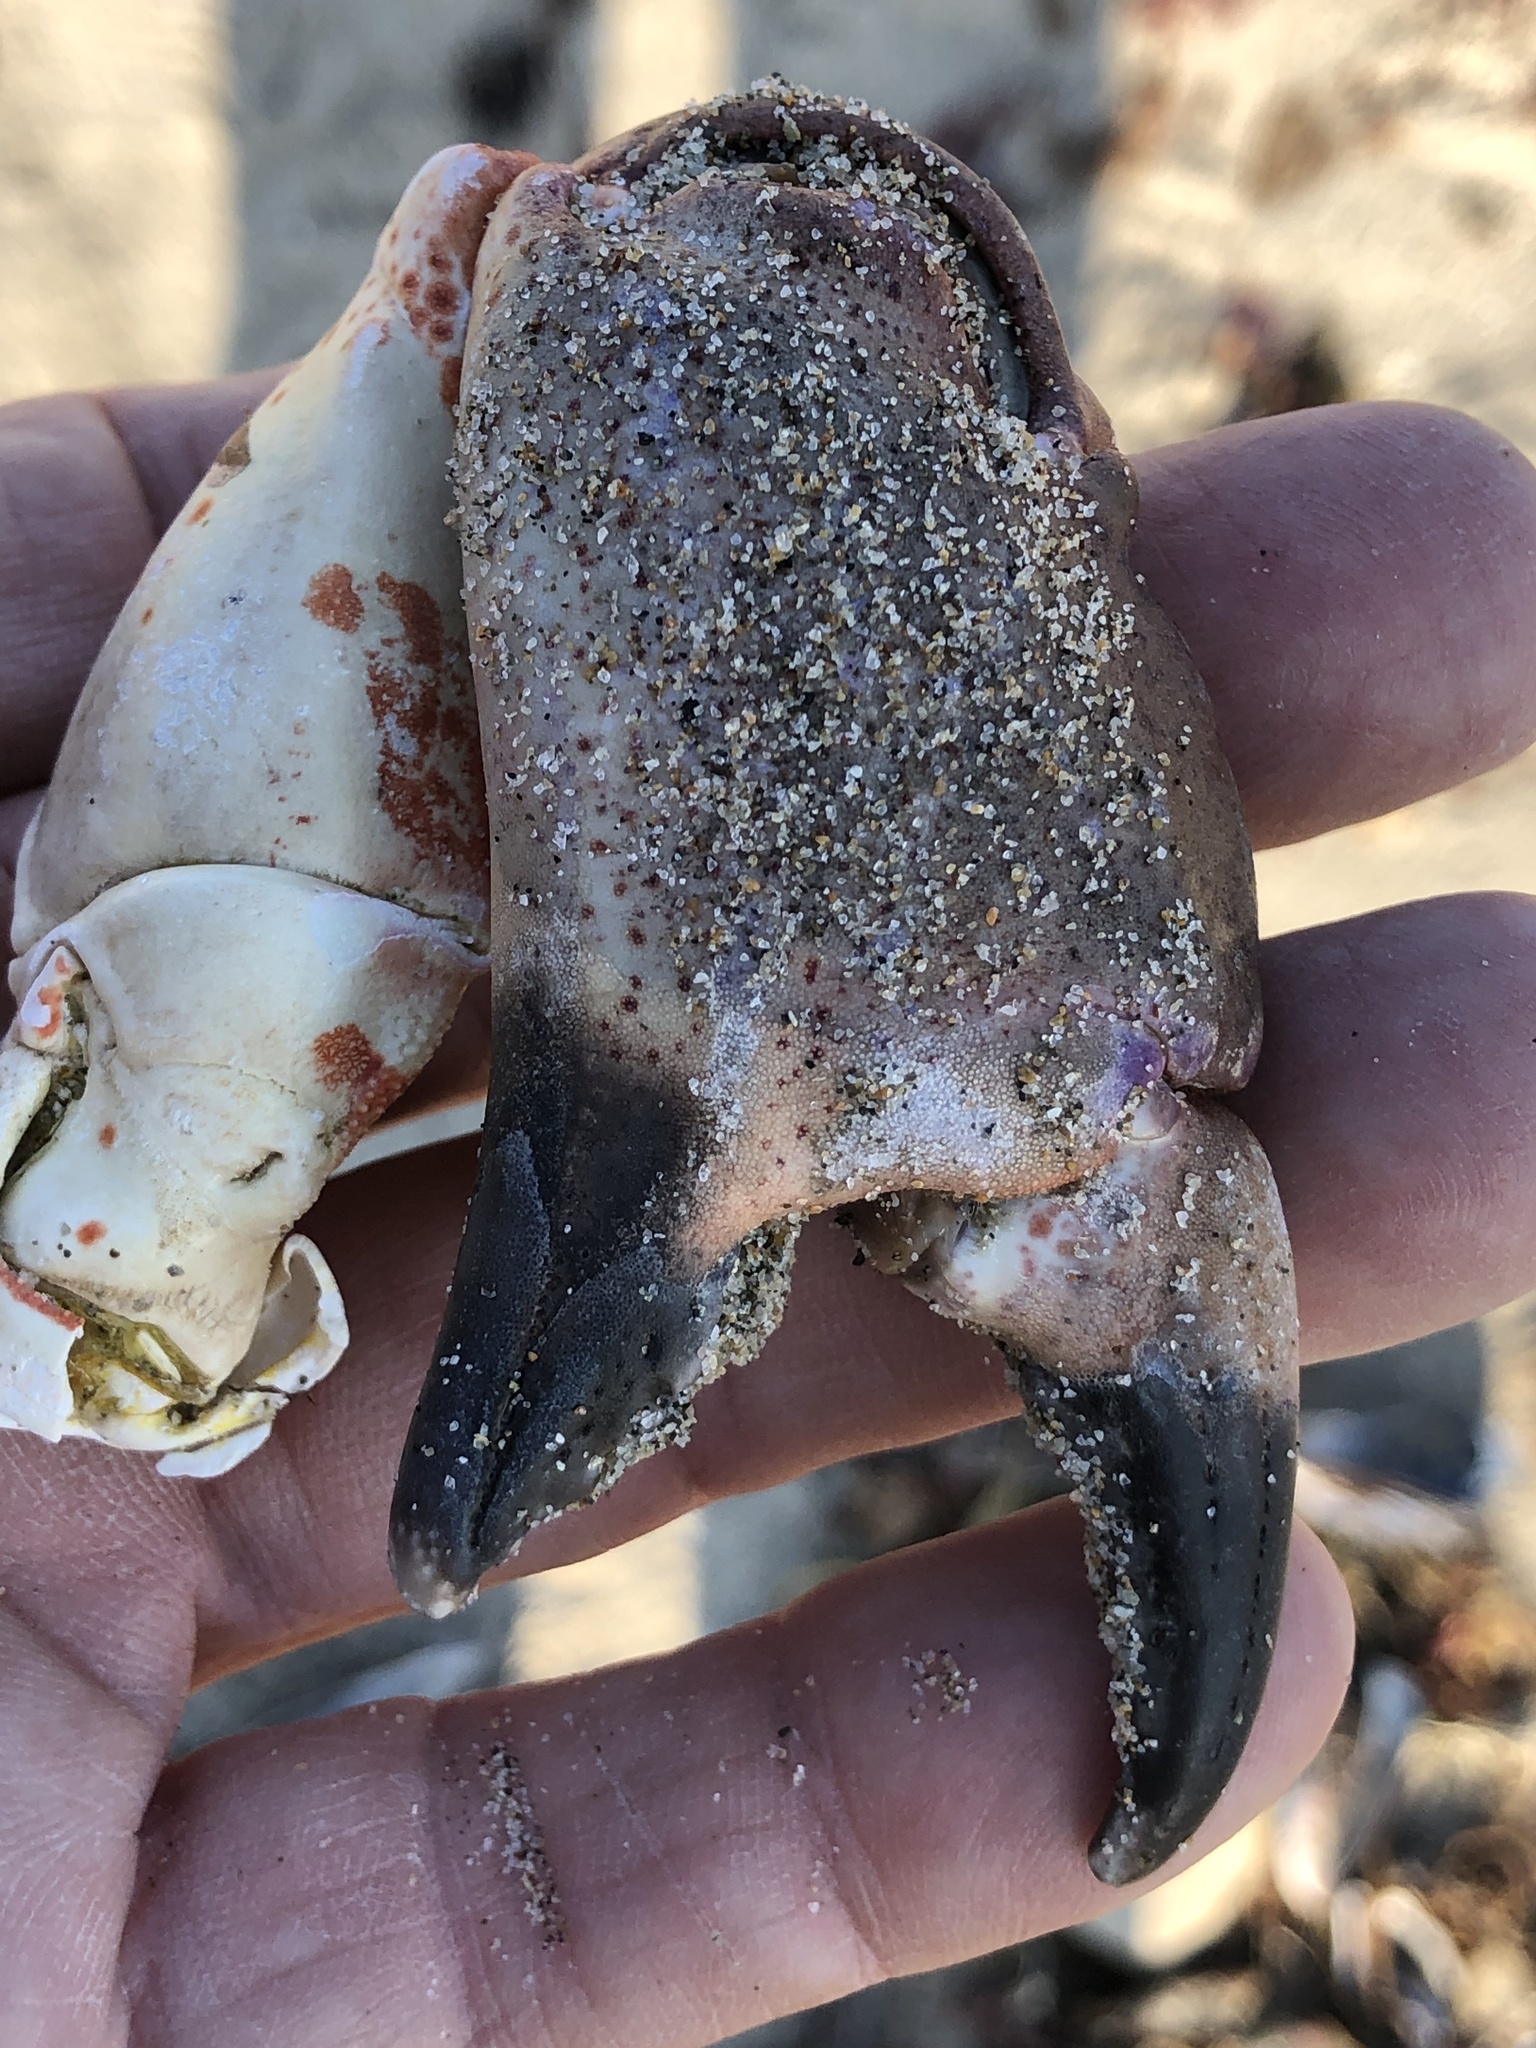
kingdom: Animalia
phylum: Arthropoda
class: Malacostraca
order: Decapoda
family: Cancridae
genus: Romaleon
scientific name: Romaleon antennarium
